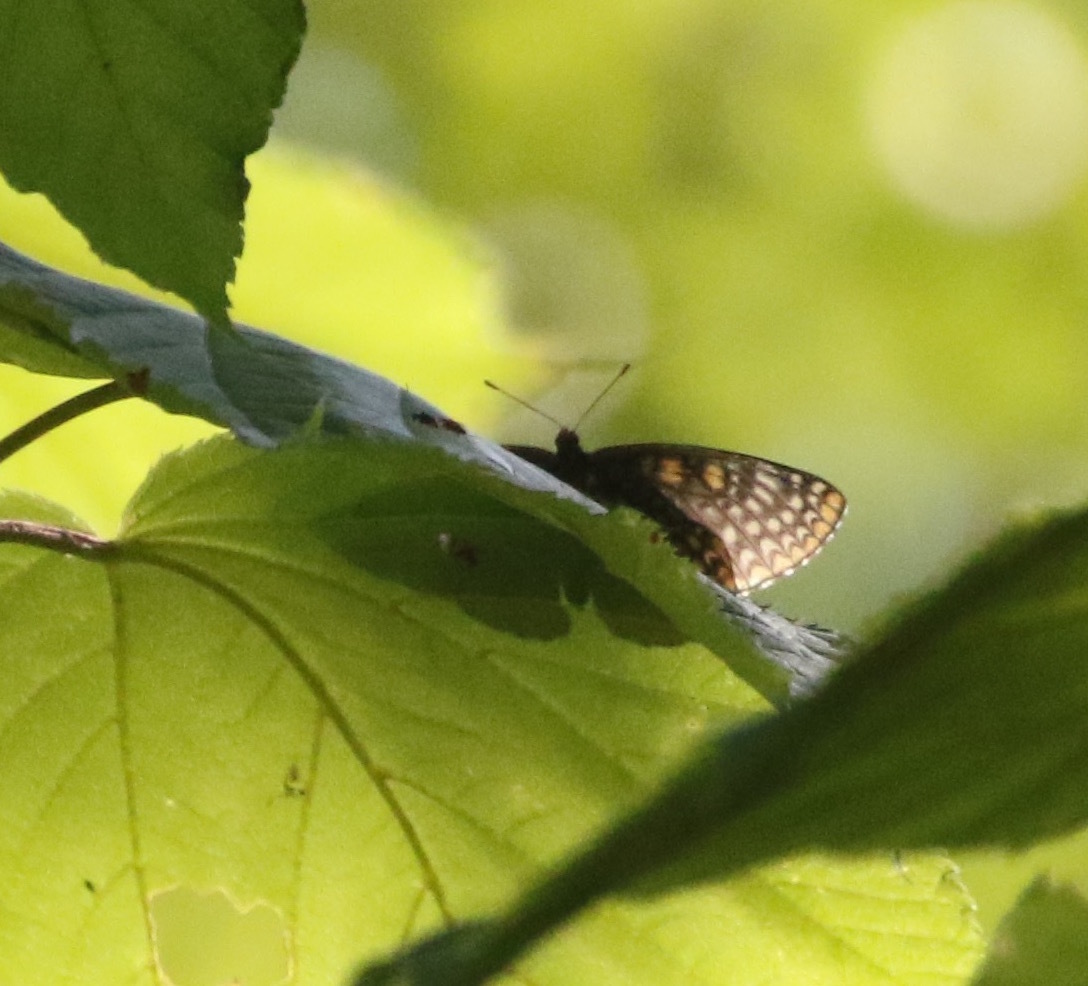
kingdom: Animalia
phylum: Arthropoda
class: Insecta
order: Lepidoptera
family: Nymphalidae
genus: Euphydryas
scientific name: Euphydryas phaeton
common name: Baltimore checkerspot
